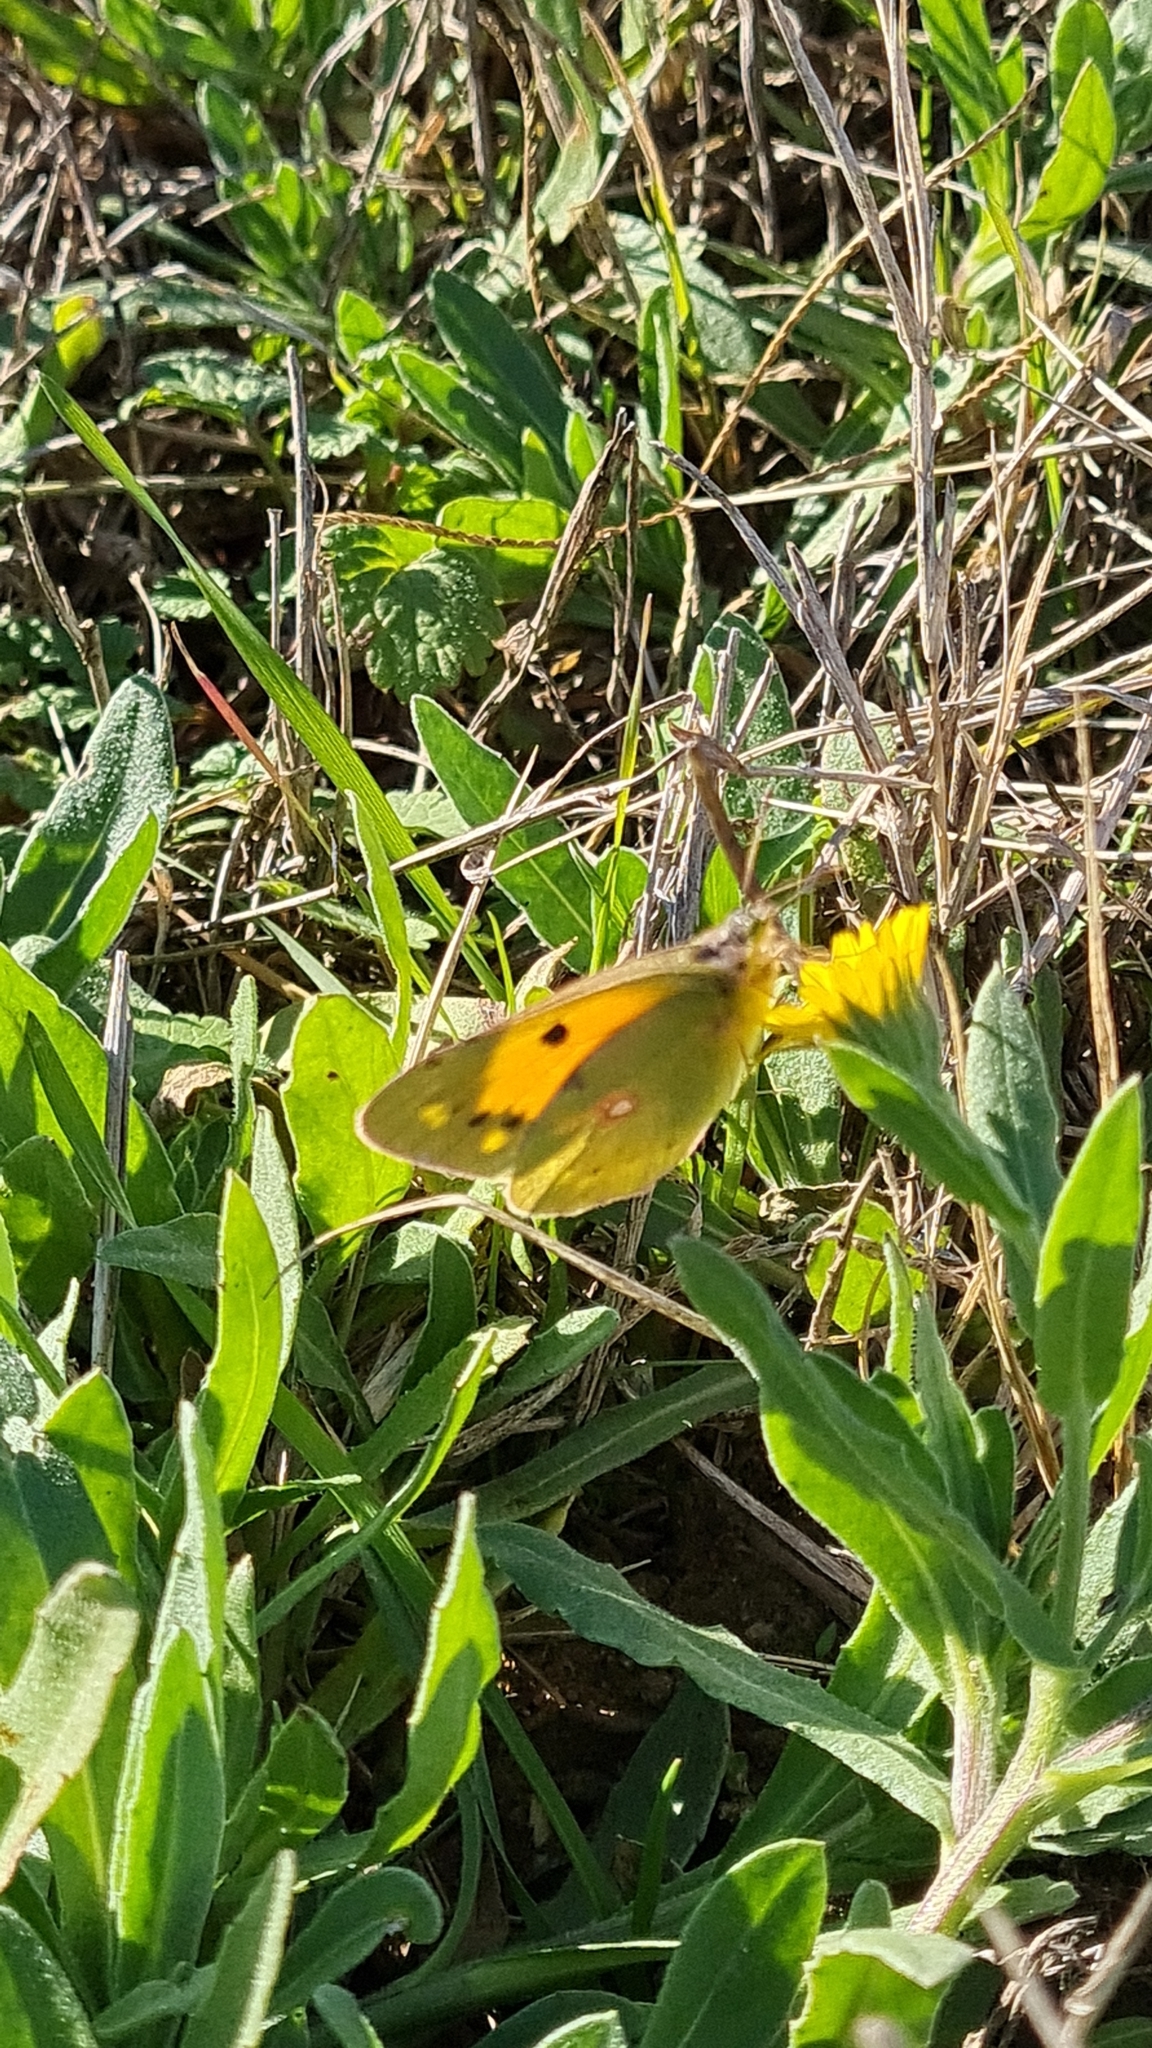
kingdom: Animalia
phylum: Arthropoda
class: Insecta
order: Lepidoptera
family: Pieridae
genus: Colias
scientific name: Colias croceus
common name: Clouded yellow
